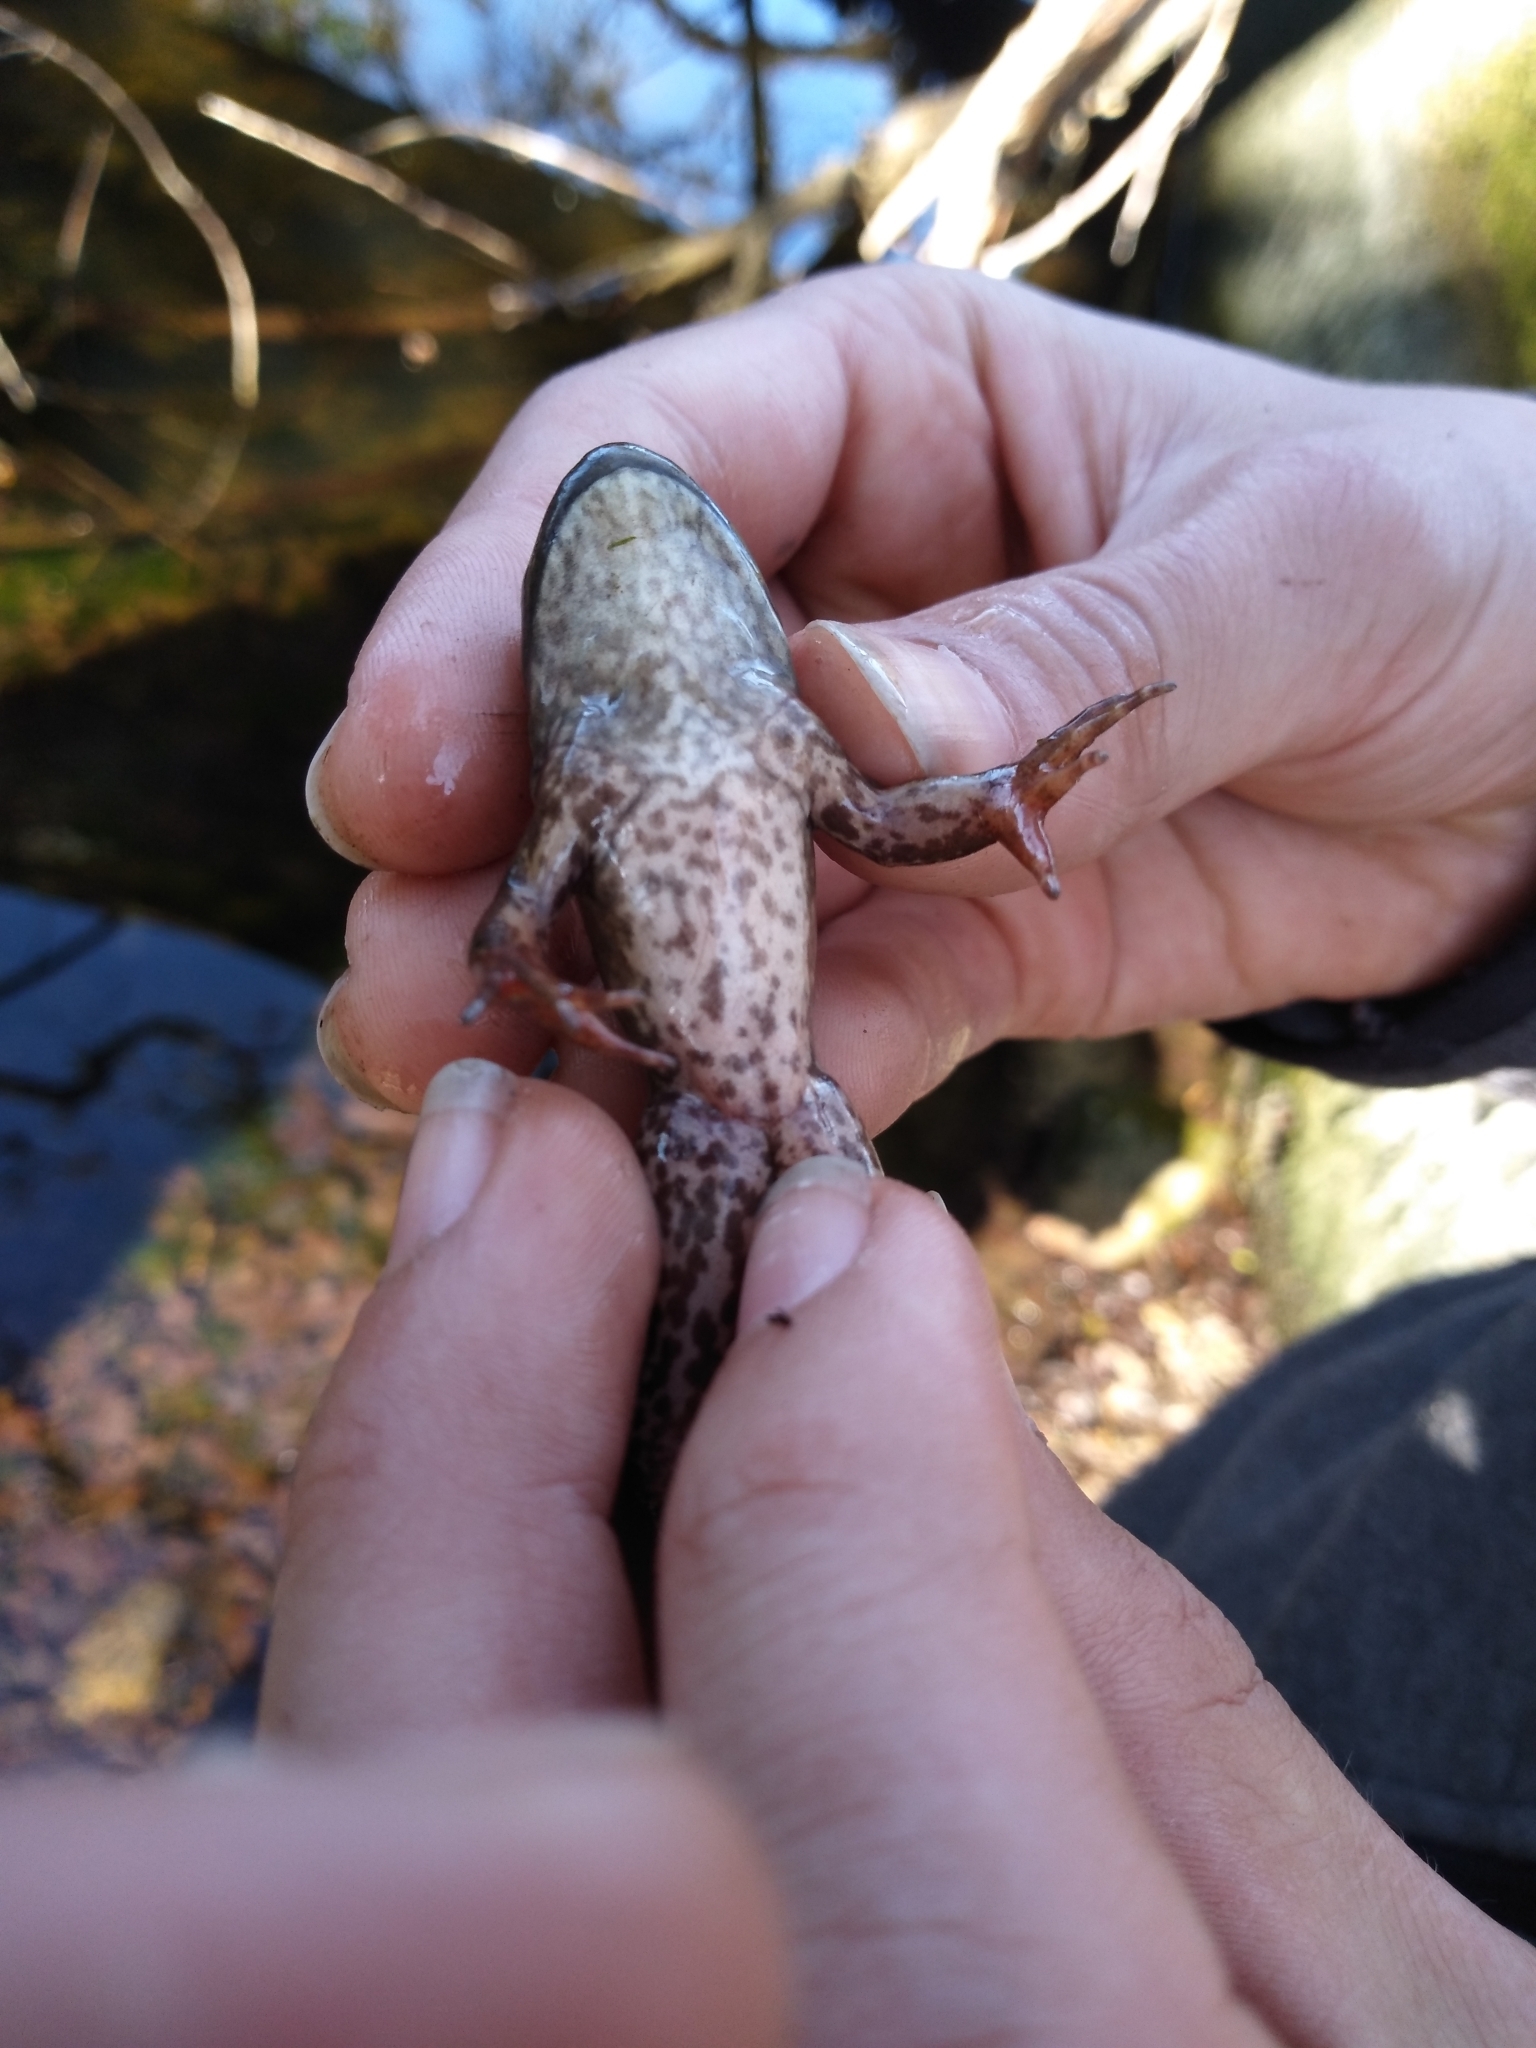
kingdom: Animalia
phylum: Chordata
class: Amphibia
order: Anura
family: Ranidae
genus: Lithobates
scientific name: Lithobates catesbeianus
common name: American bullfrog
